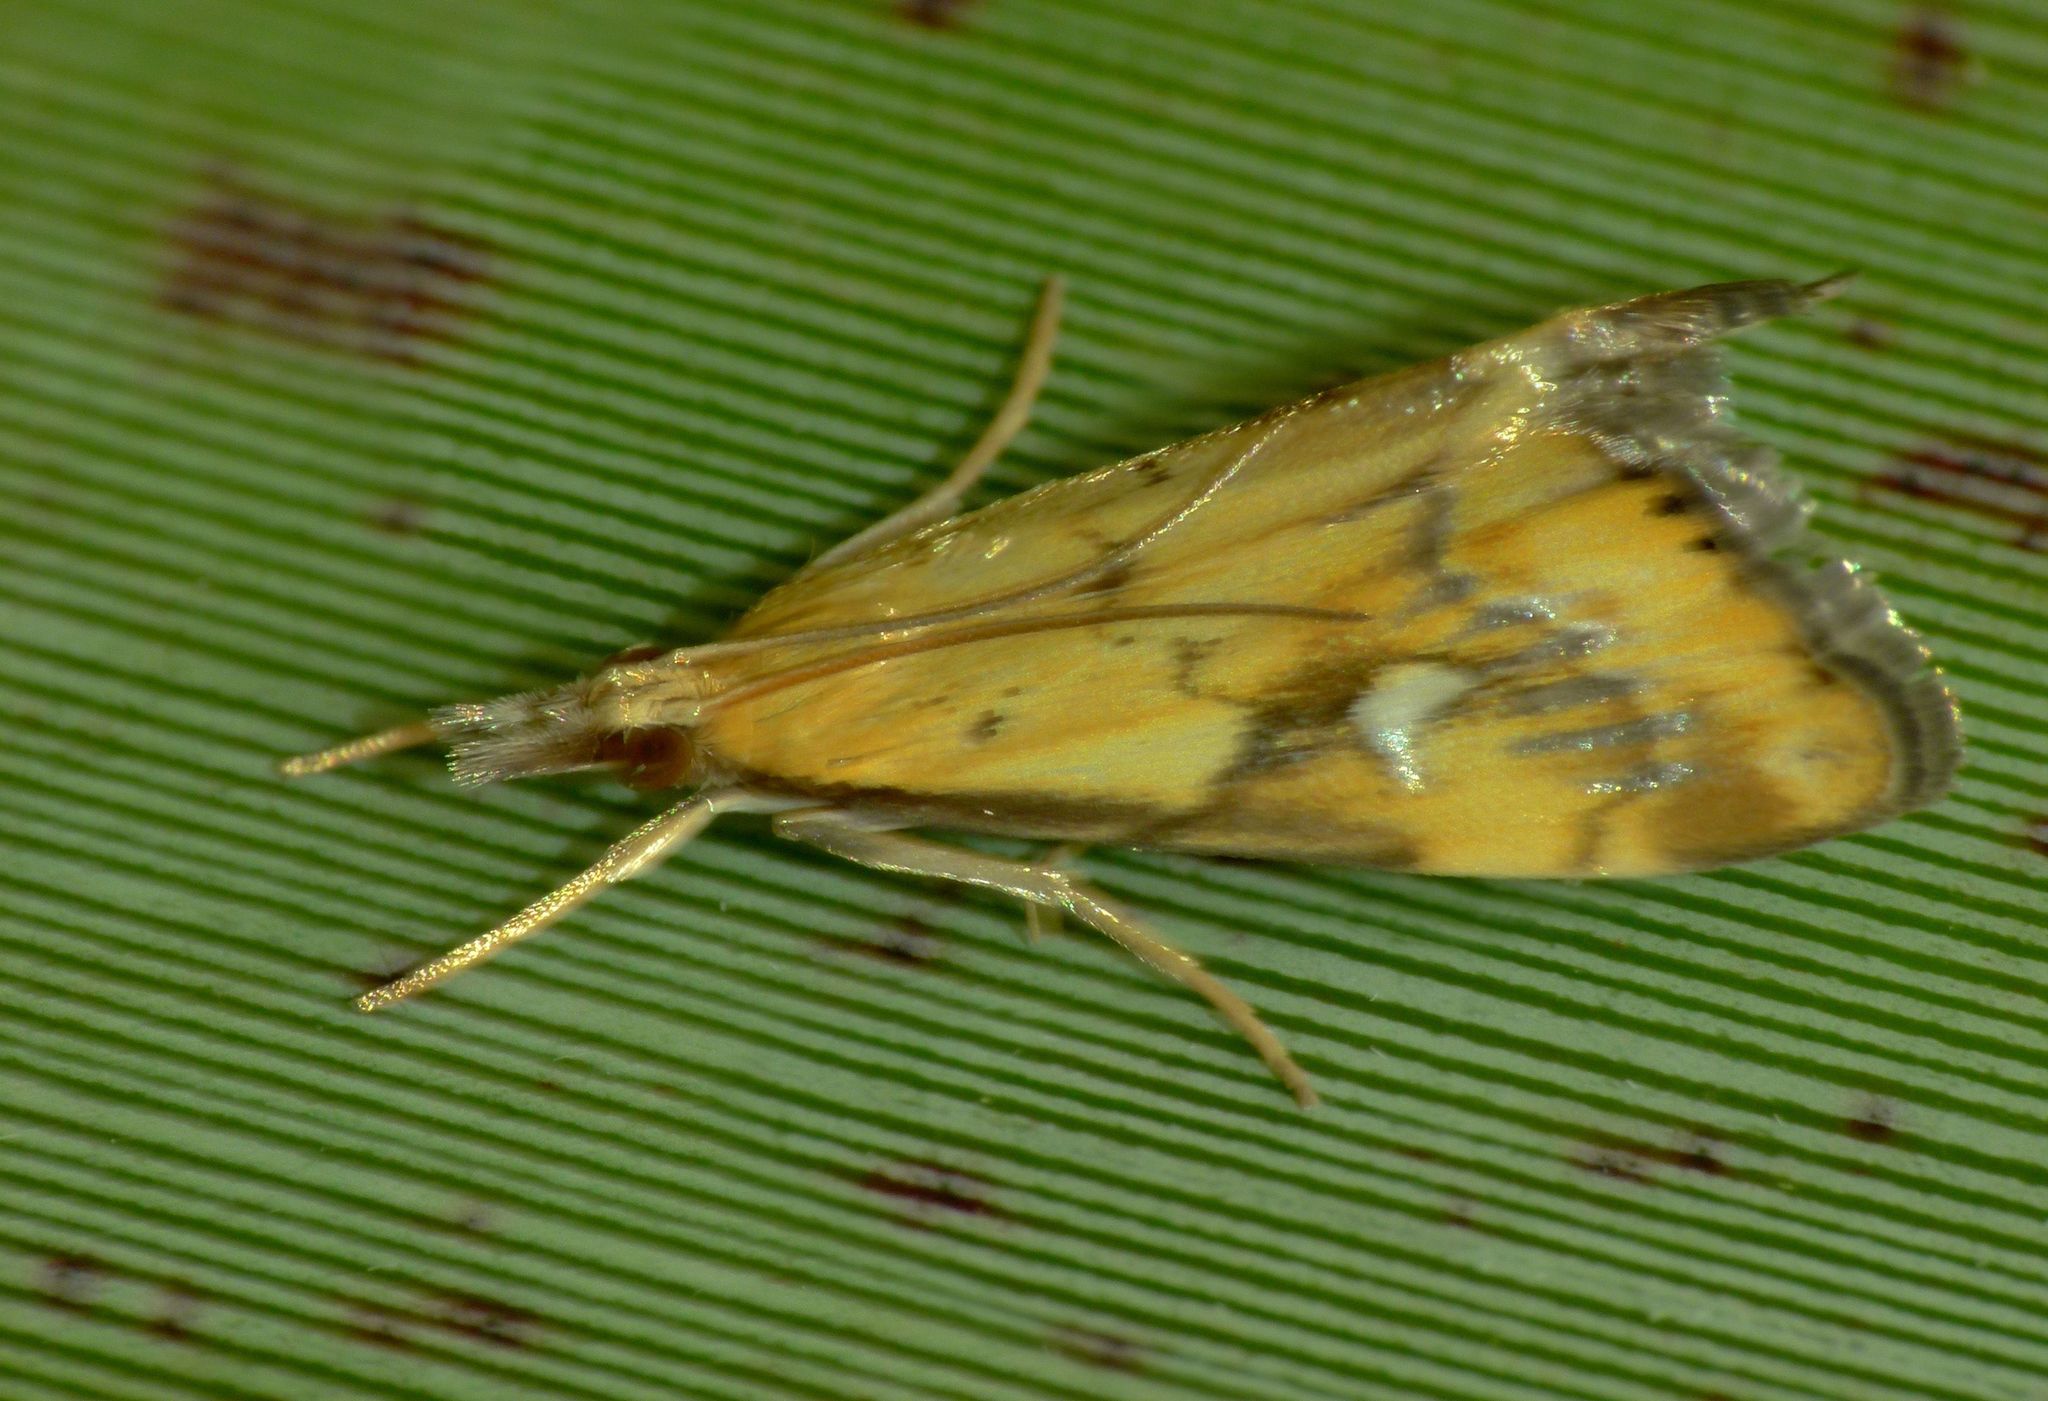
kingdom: Animalia
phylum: Arthropoda
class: Insecta
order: Lepidoptera
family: Crambidae
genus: Glaucocharis
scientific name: Glaucocharis lepidella
